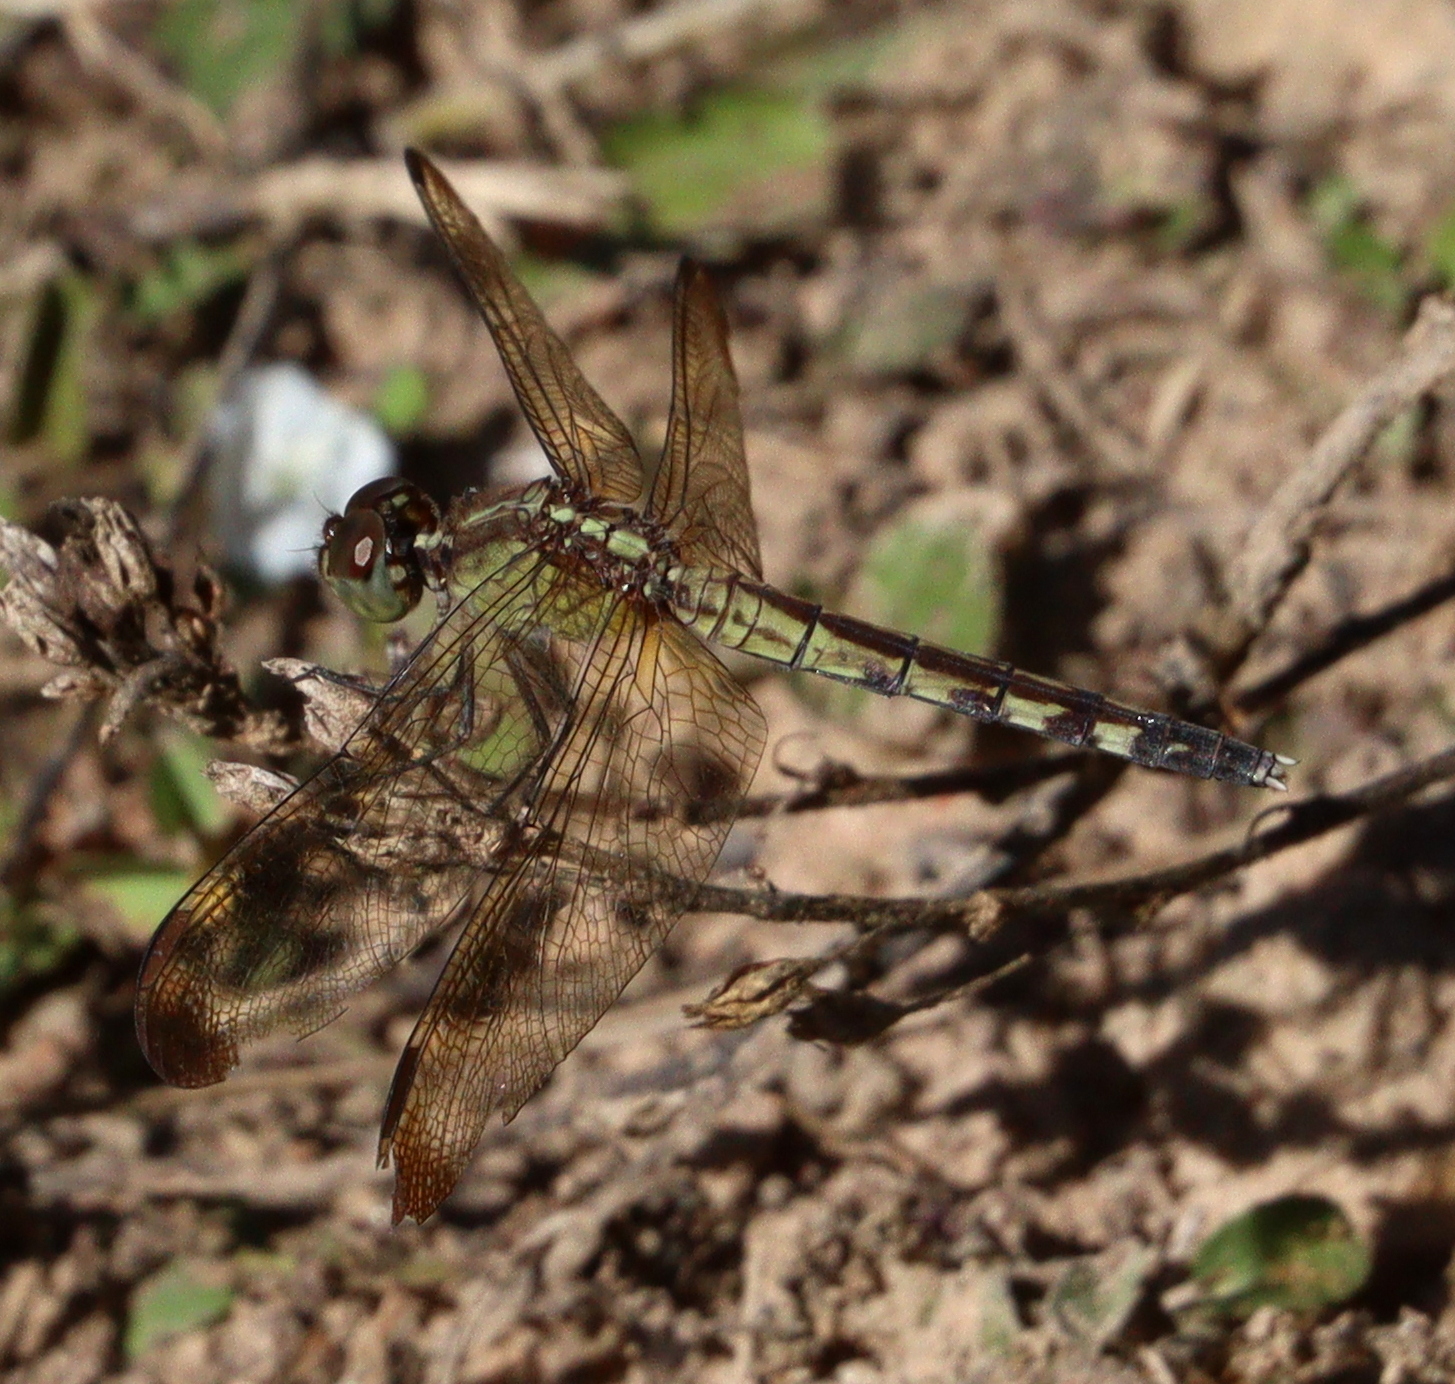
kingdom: Animalia
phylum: Arthropoda
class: Insecta
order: Odonata
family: Libellulidae
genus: Erythrodiplax
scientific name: Erythrodiplax umbrata
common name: Band-winged dragonlet
